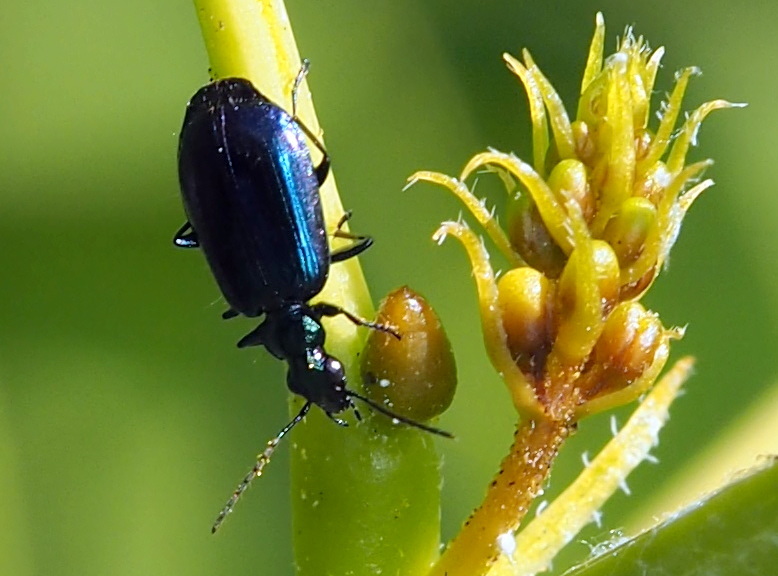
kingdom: Animalia
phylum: Arthropoda
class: Insecta
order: Coleoptera
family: Carabidae
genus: Lebia
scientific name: Lebia viridis
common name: Flower lebia beetle
